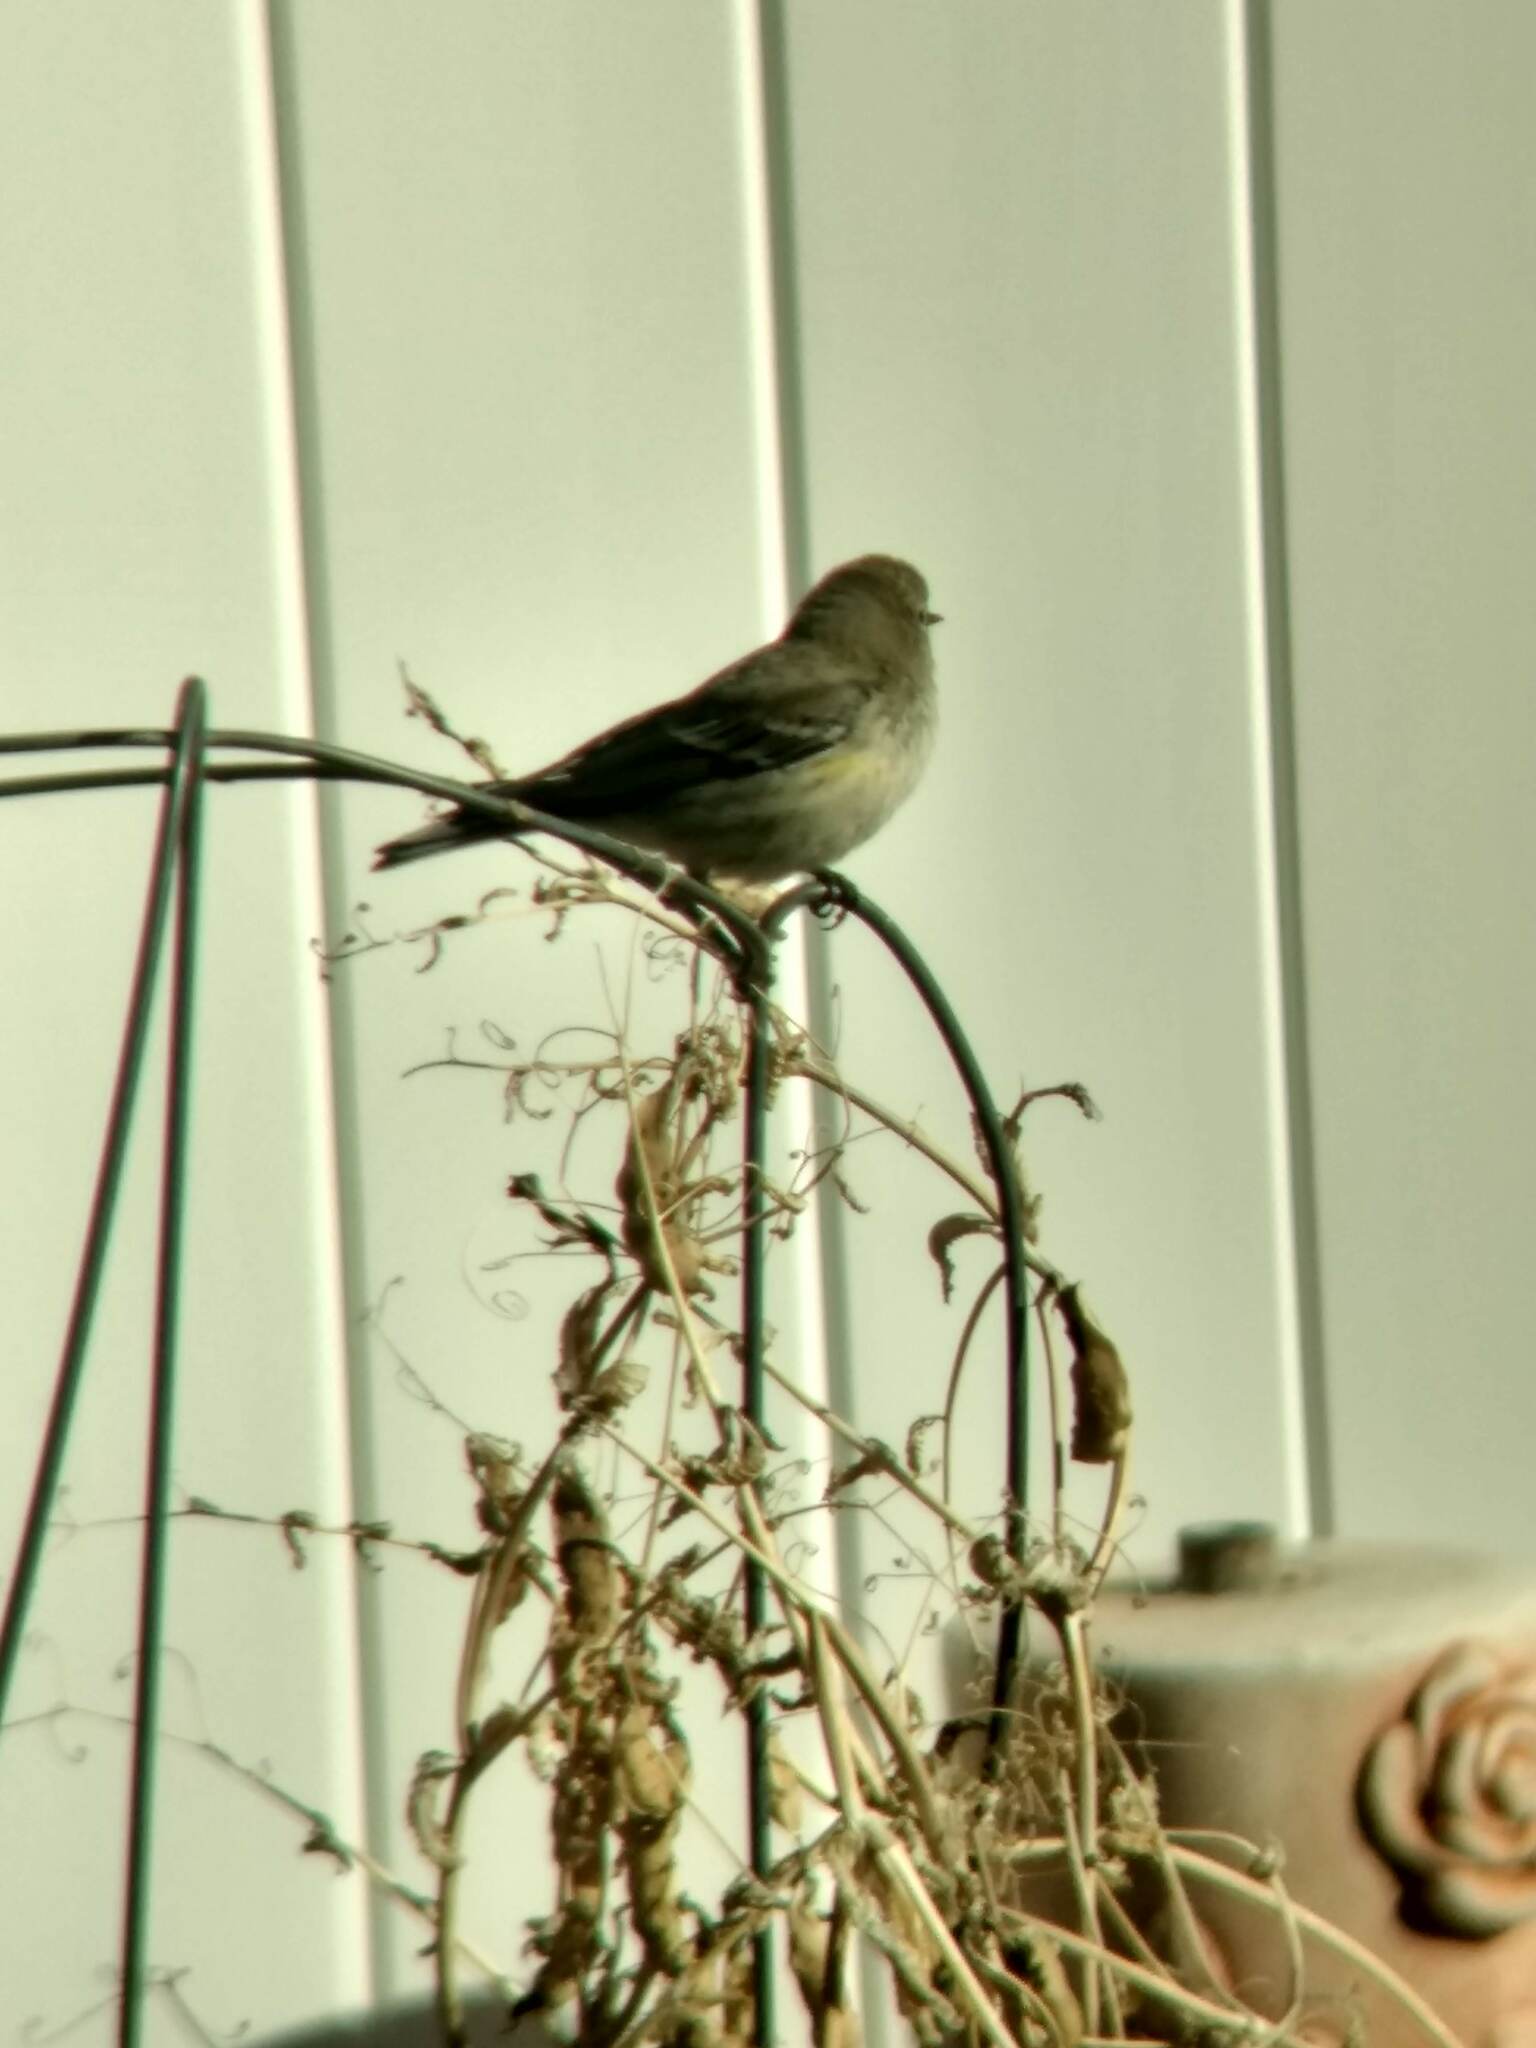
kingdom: Animalia
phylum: Chordata
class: Aves
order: Passeriformes
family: Parulidae
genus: Setophaga
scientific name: Setophaga coronata
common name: Myrtle warbler
